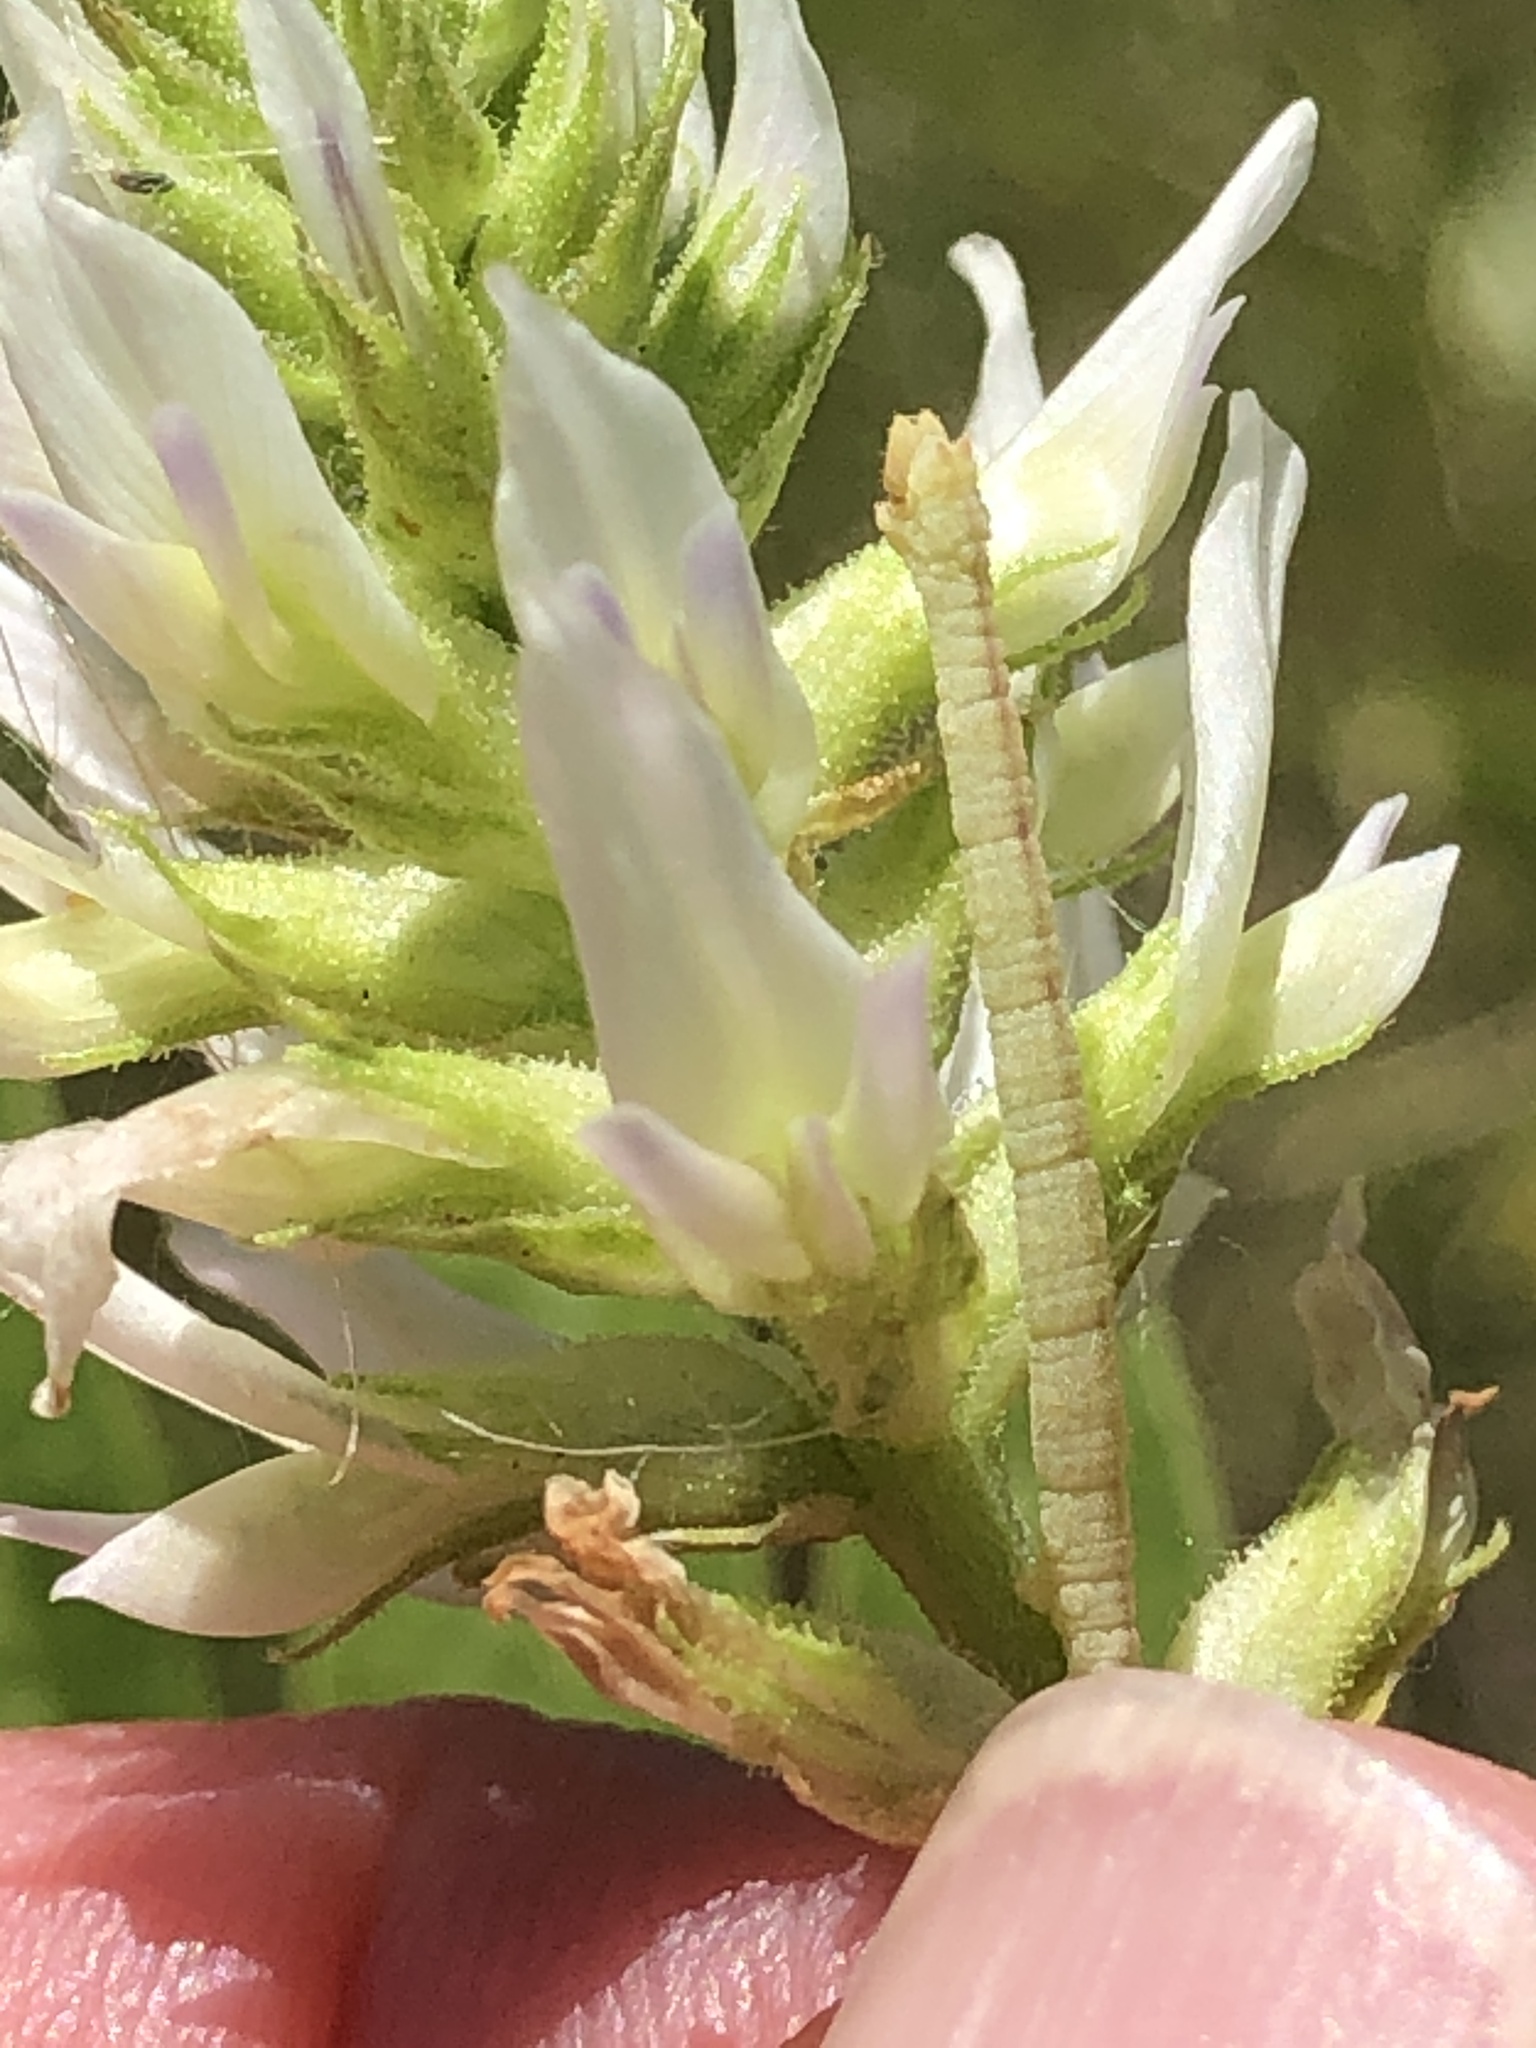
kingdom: Plantae
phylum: Tracheophyta
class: Magnoliopsida
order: Fabales
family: Fabaceae
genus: Glycyrrhiza
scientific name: Glycyrrhiza lepidota
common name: American liquorice
